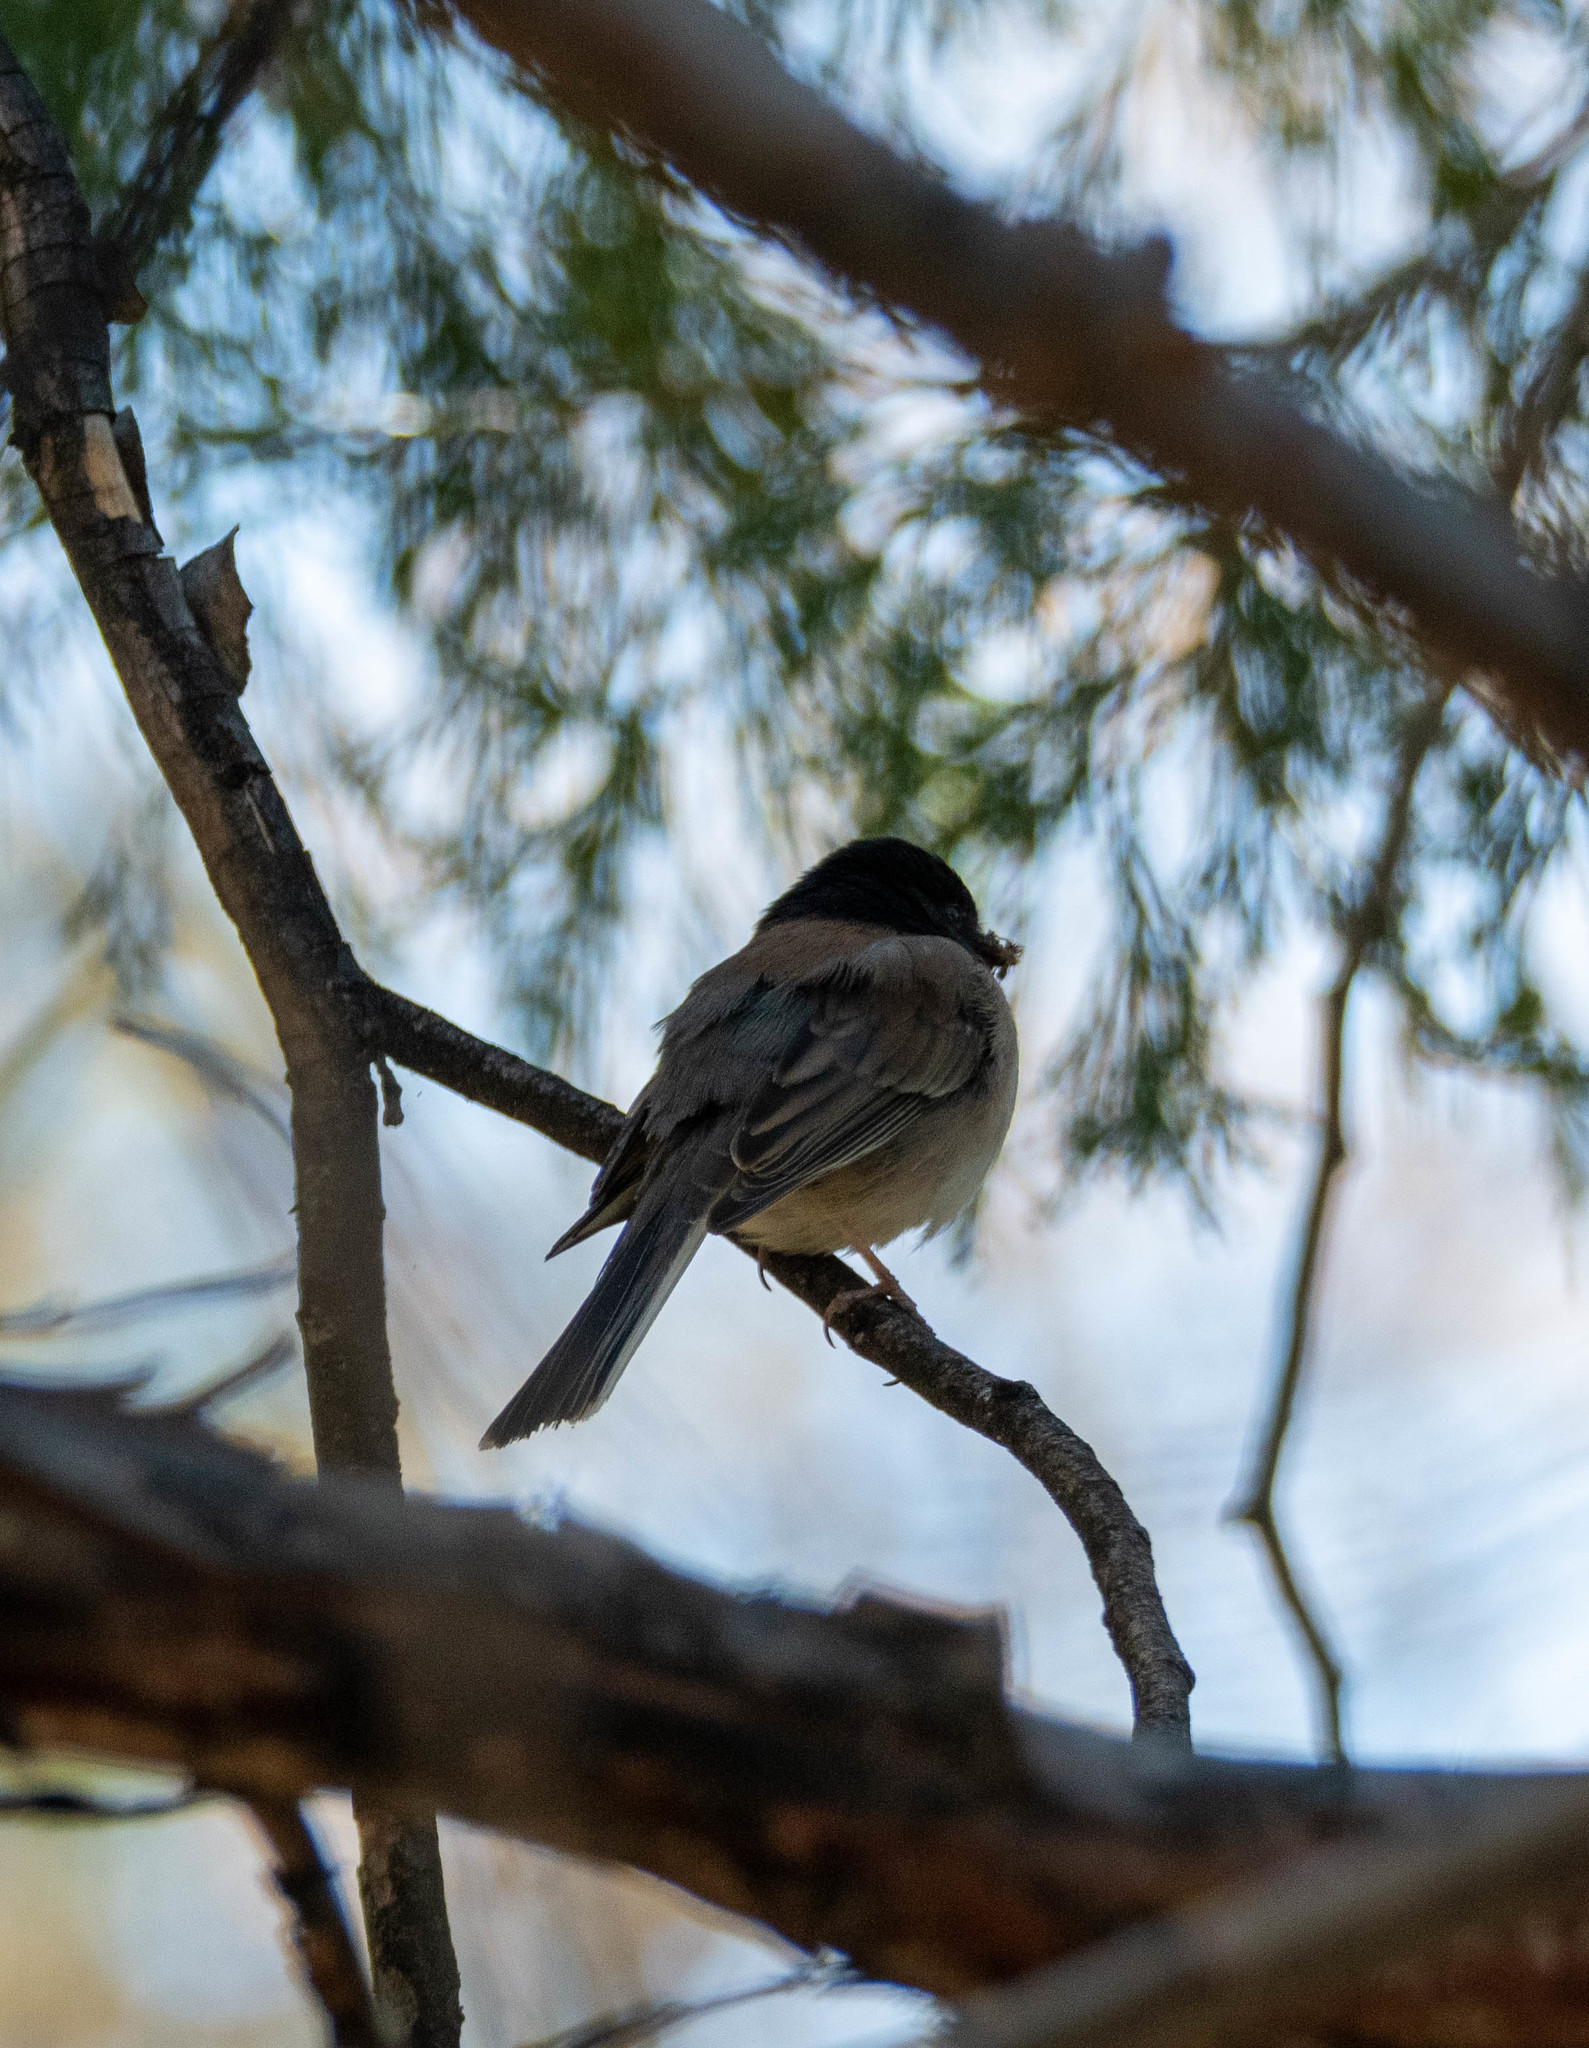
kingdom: Animalia
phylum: Chordata
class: Aves
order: Passeriformes
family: Passerellidae
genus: Junco
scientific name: Junco hyemalis
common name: Dark-eyed junco
